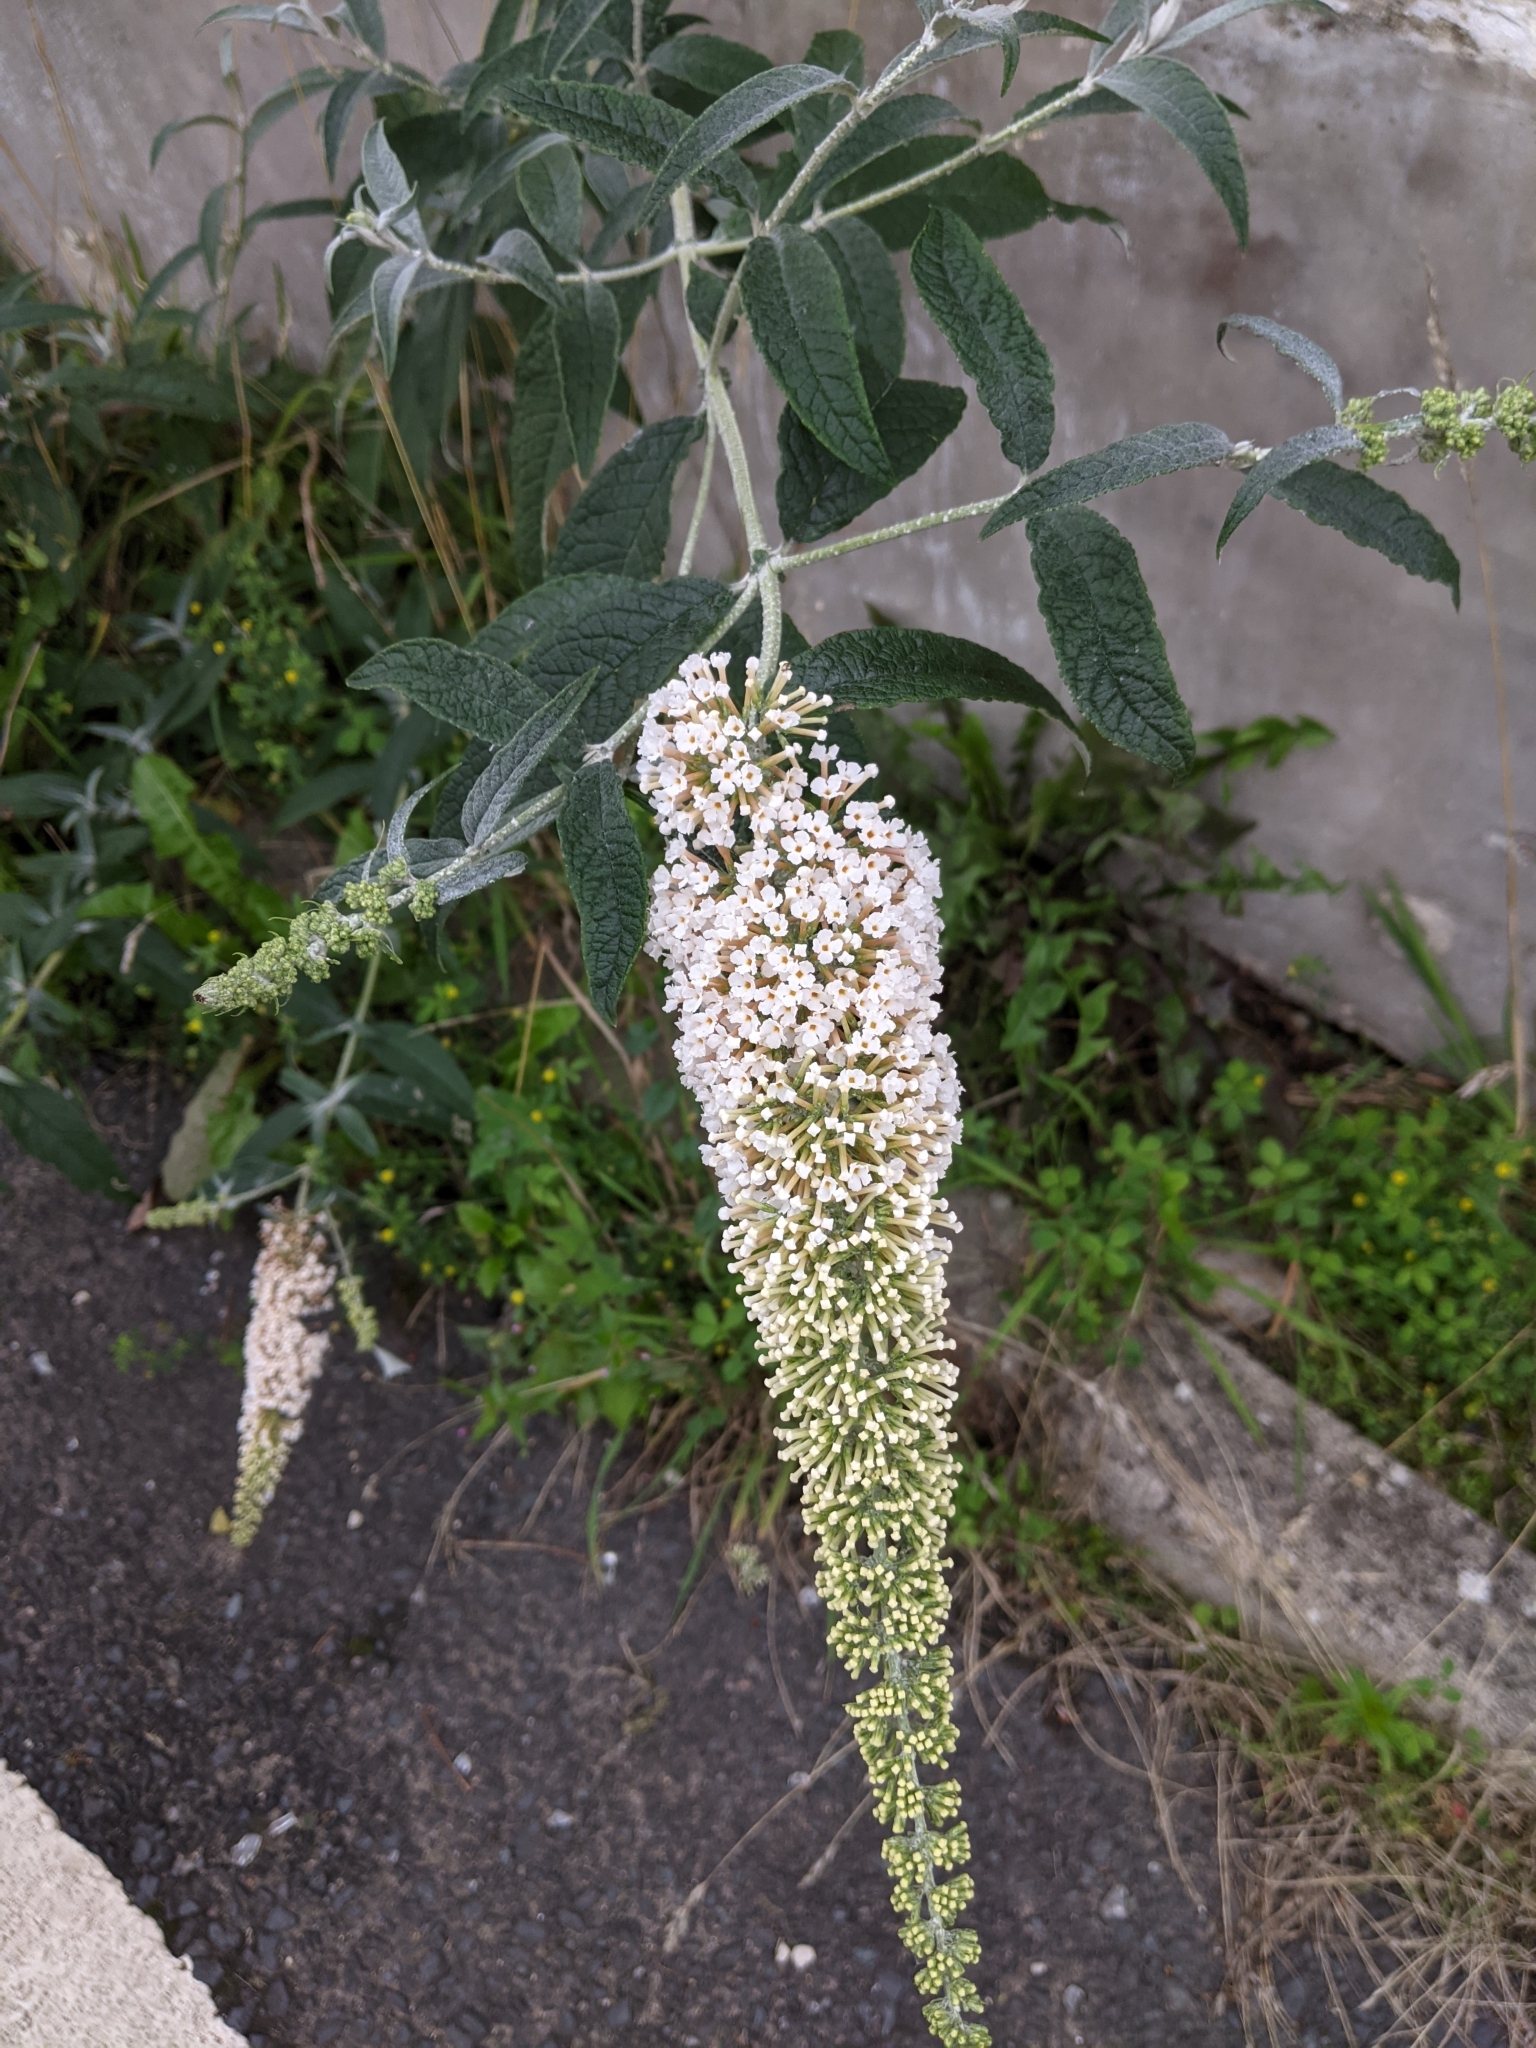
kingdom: Plantae
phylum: Tracheophyta
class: Magnoliopsida
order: Lamiales
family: Scrophulariaceae
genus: Buddleja
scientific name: Buddleja davidii
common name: Butterfly-bush
